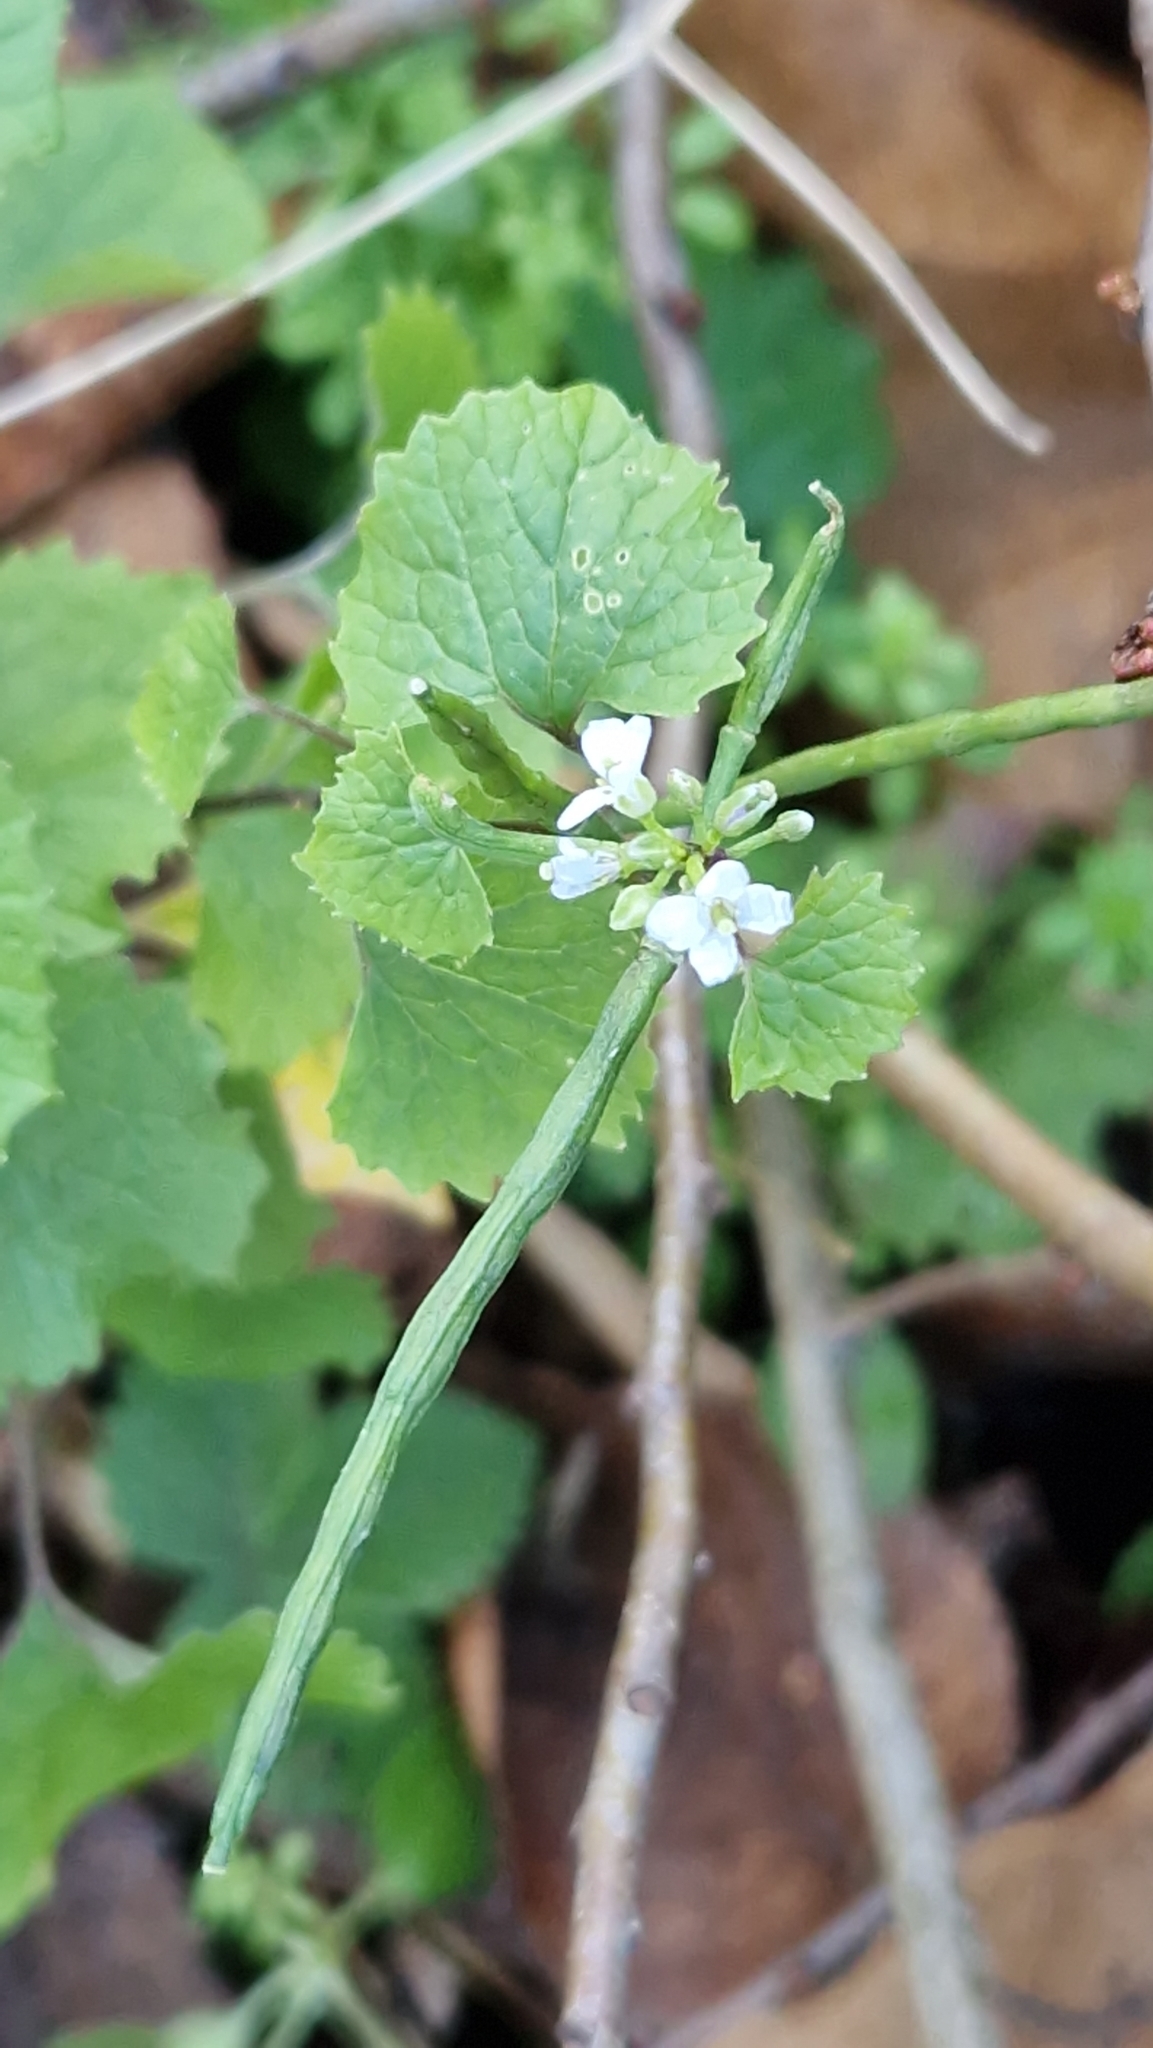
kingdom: Plantae
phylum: Tracheophyta
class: Magnoliopsida
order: Brassicales
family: Brassicaceae
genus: Alliaria
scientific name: Alliaria petiolata
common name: Garlic mustard
